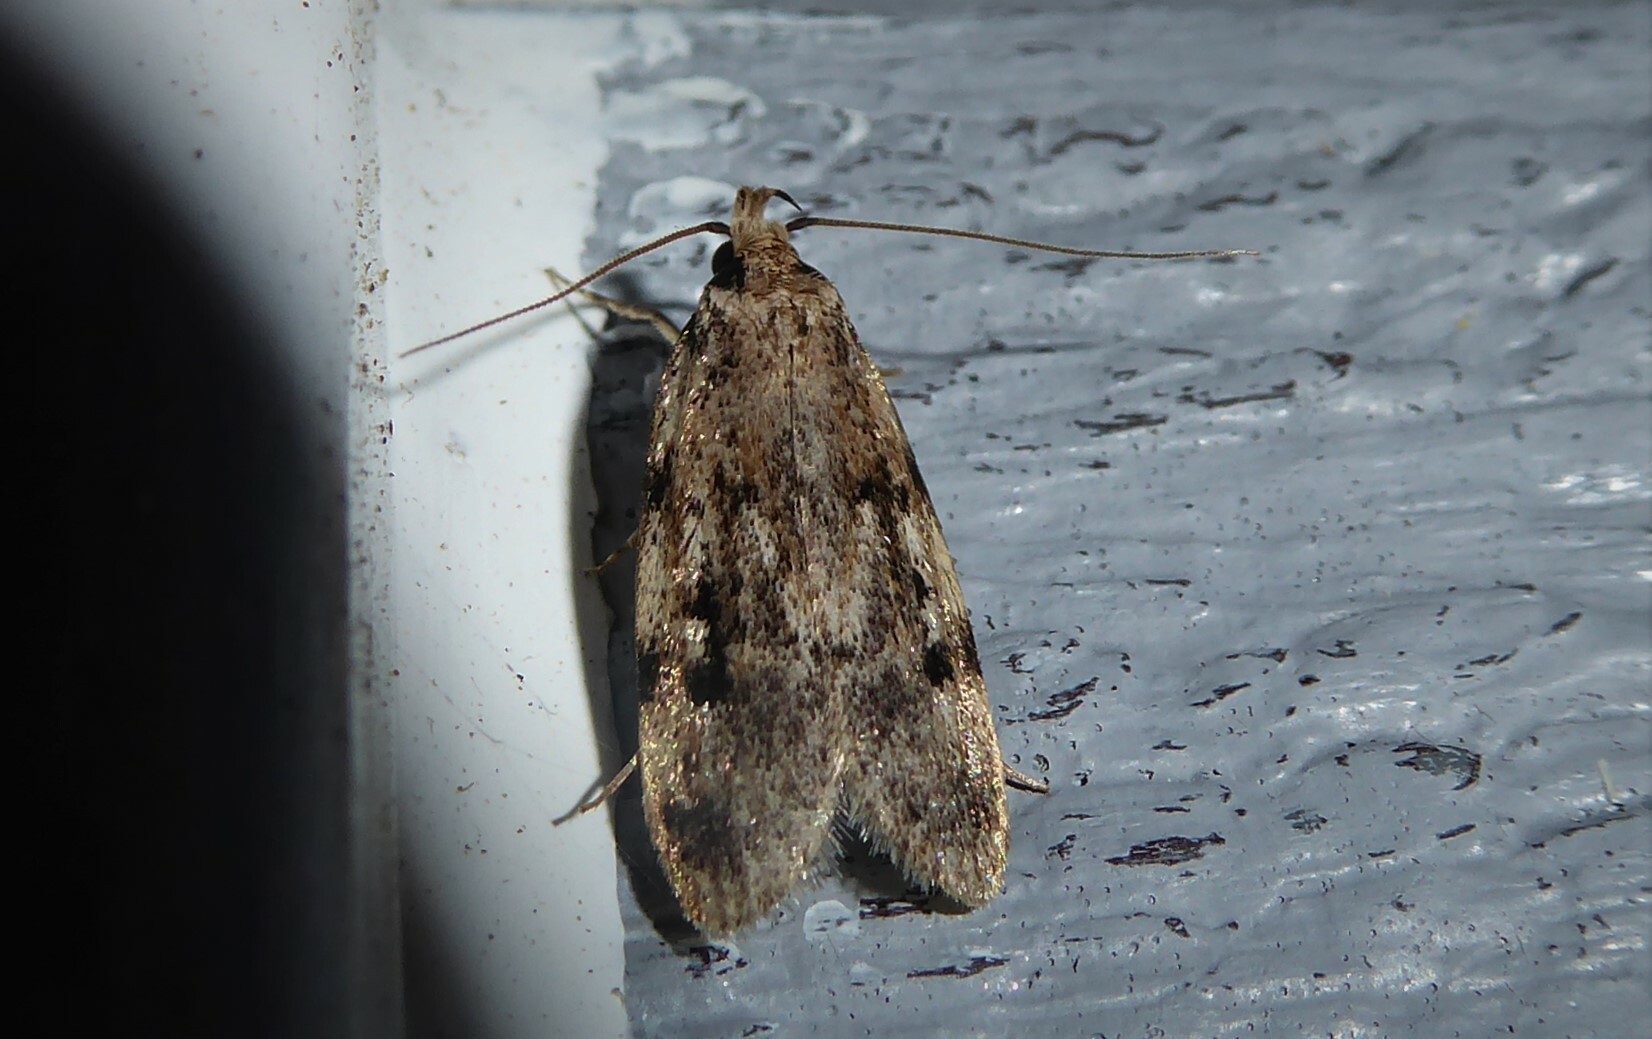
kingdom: Animalia
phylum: Arthropoda
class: Insecta
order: Lepidoptera
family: Oecophoridae
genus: Barea
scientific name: Barea exarcha
